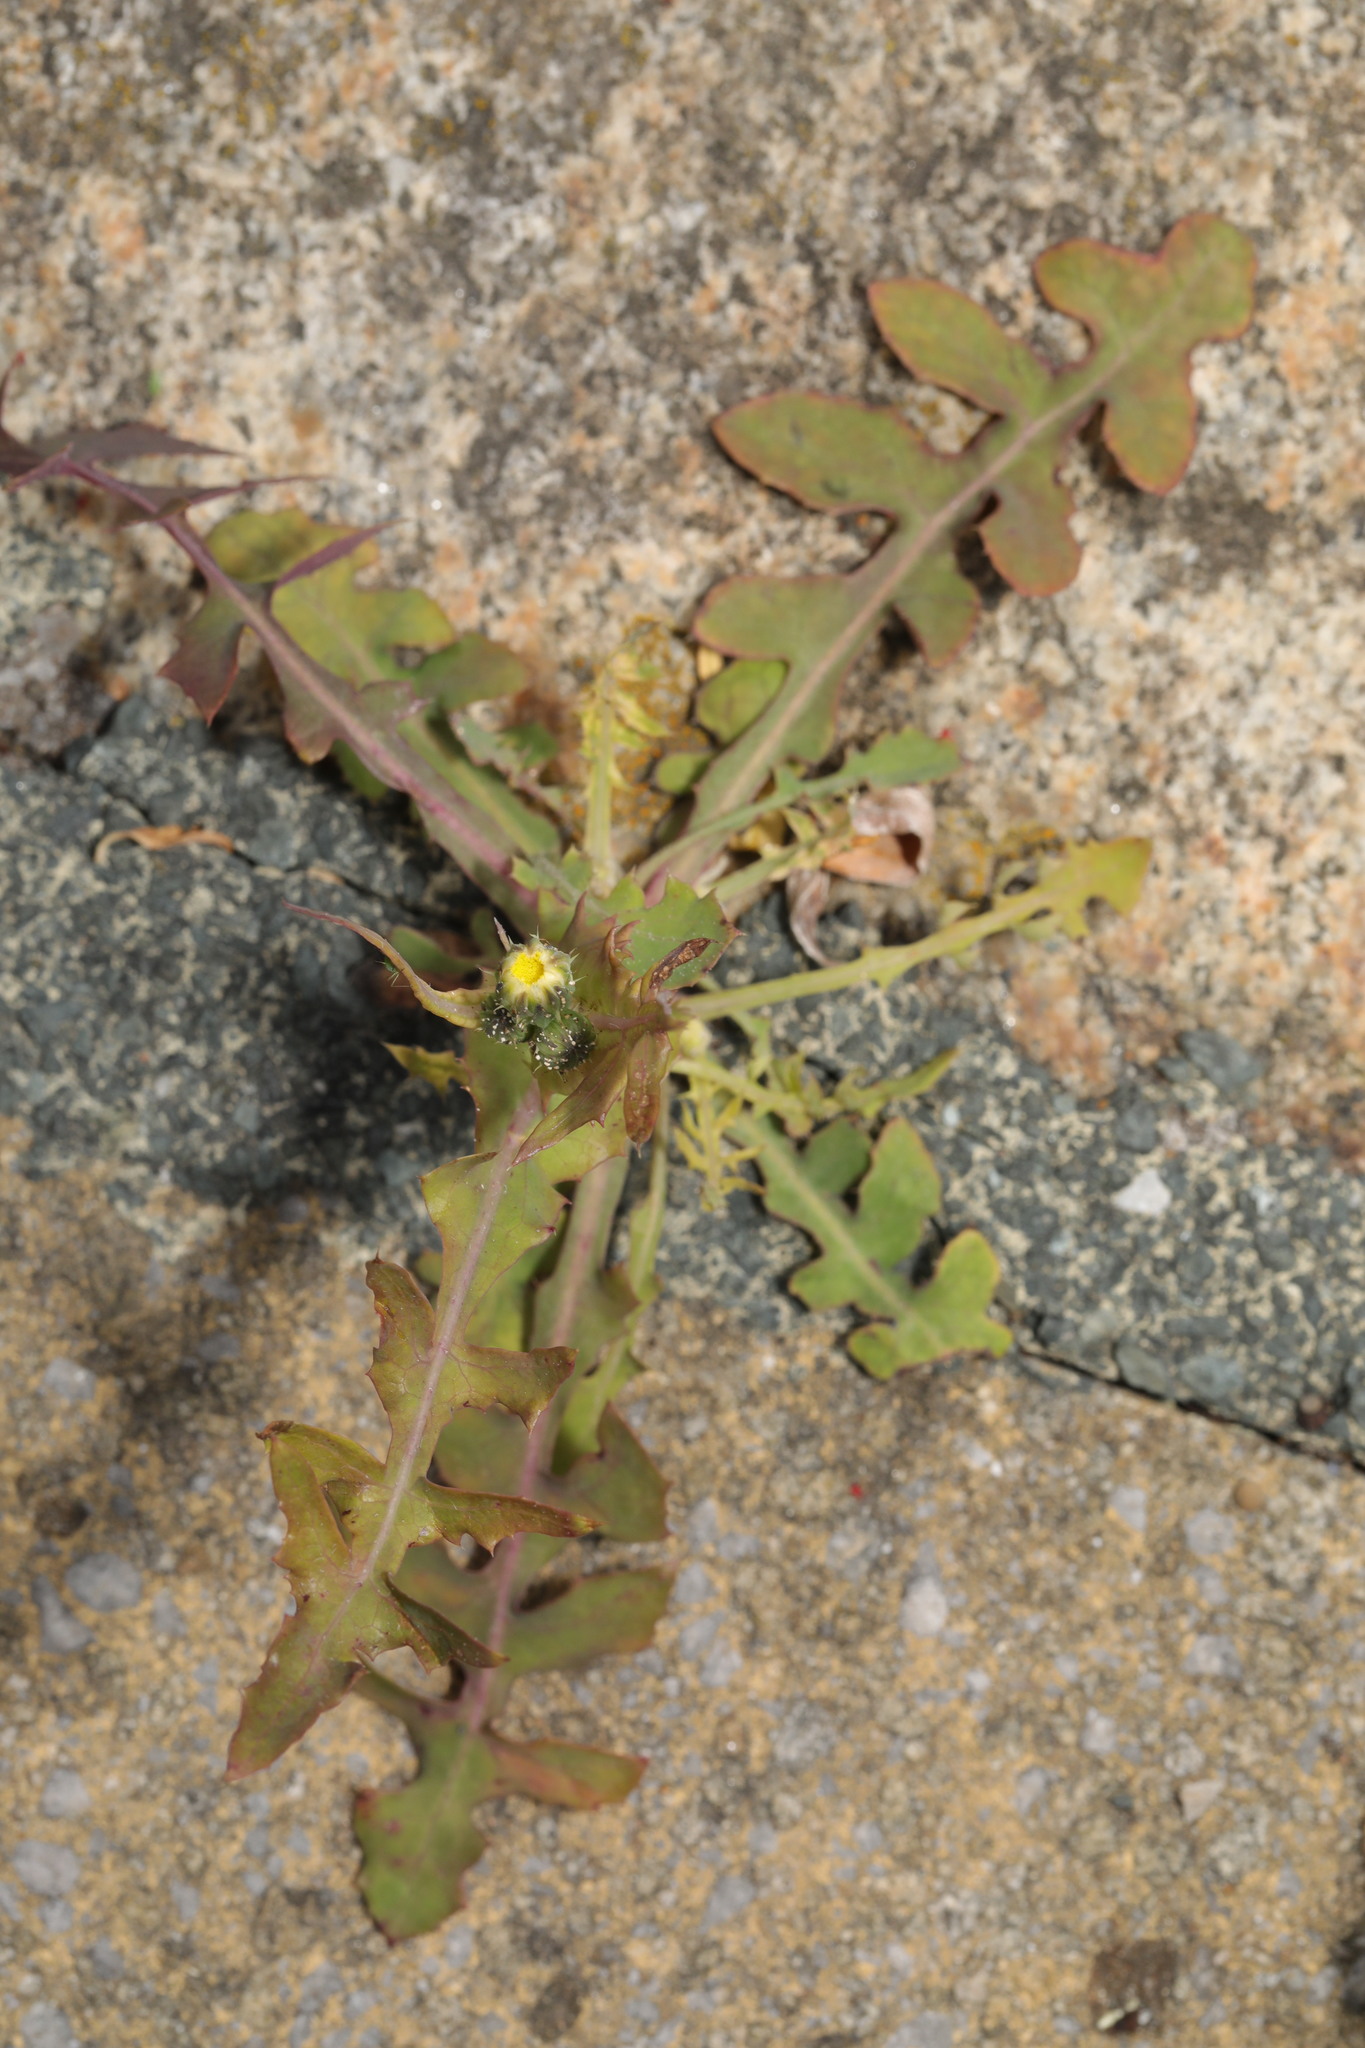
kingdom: Plantae
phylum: Tracheophyta
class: Magnoliopsida
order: Asterales
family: Asteraceae
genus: Sonchus
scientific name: Sonchus oleraceus
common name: Common sowthistle
